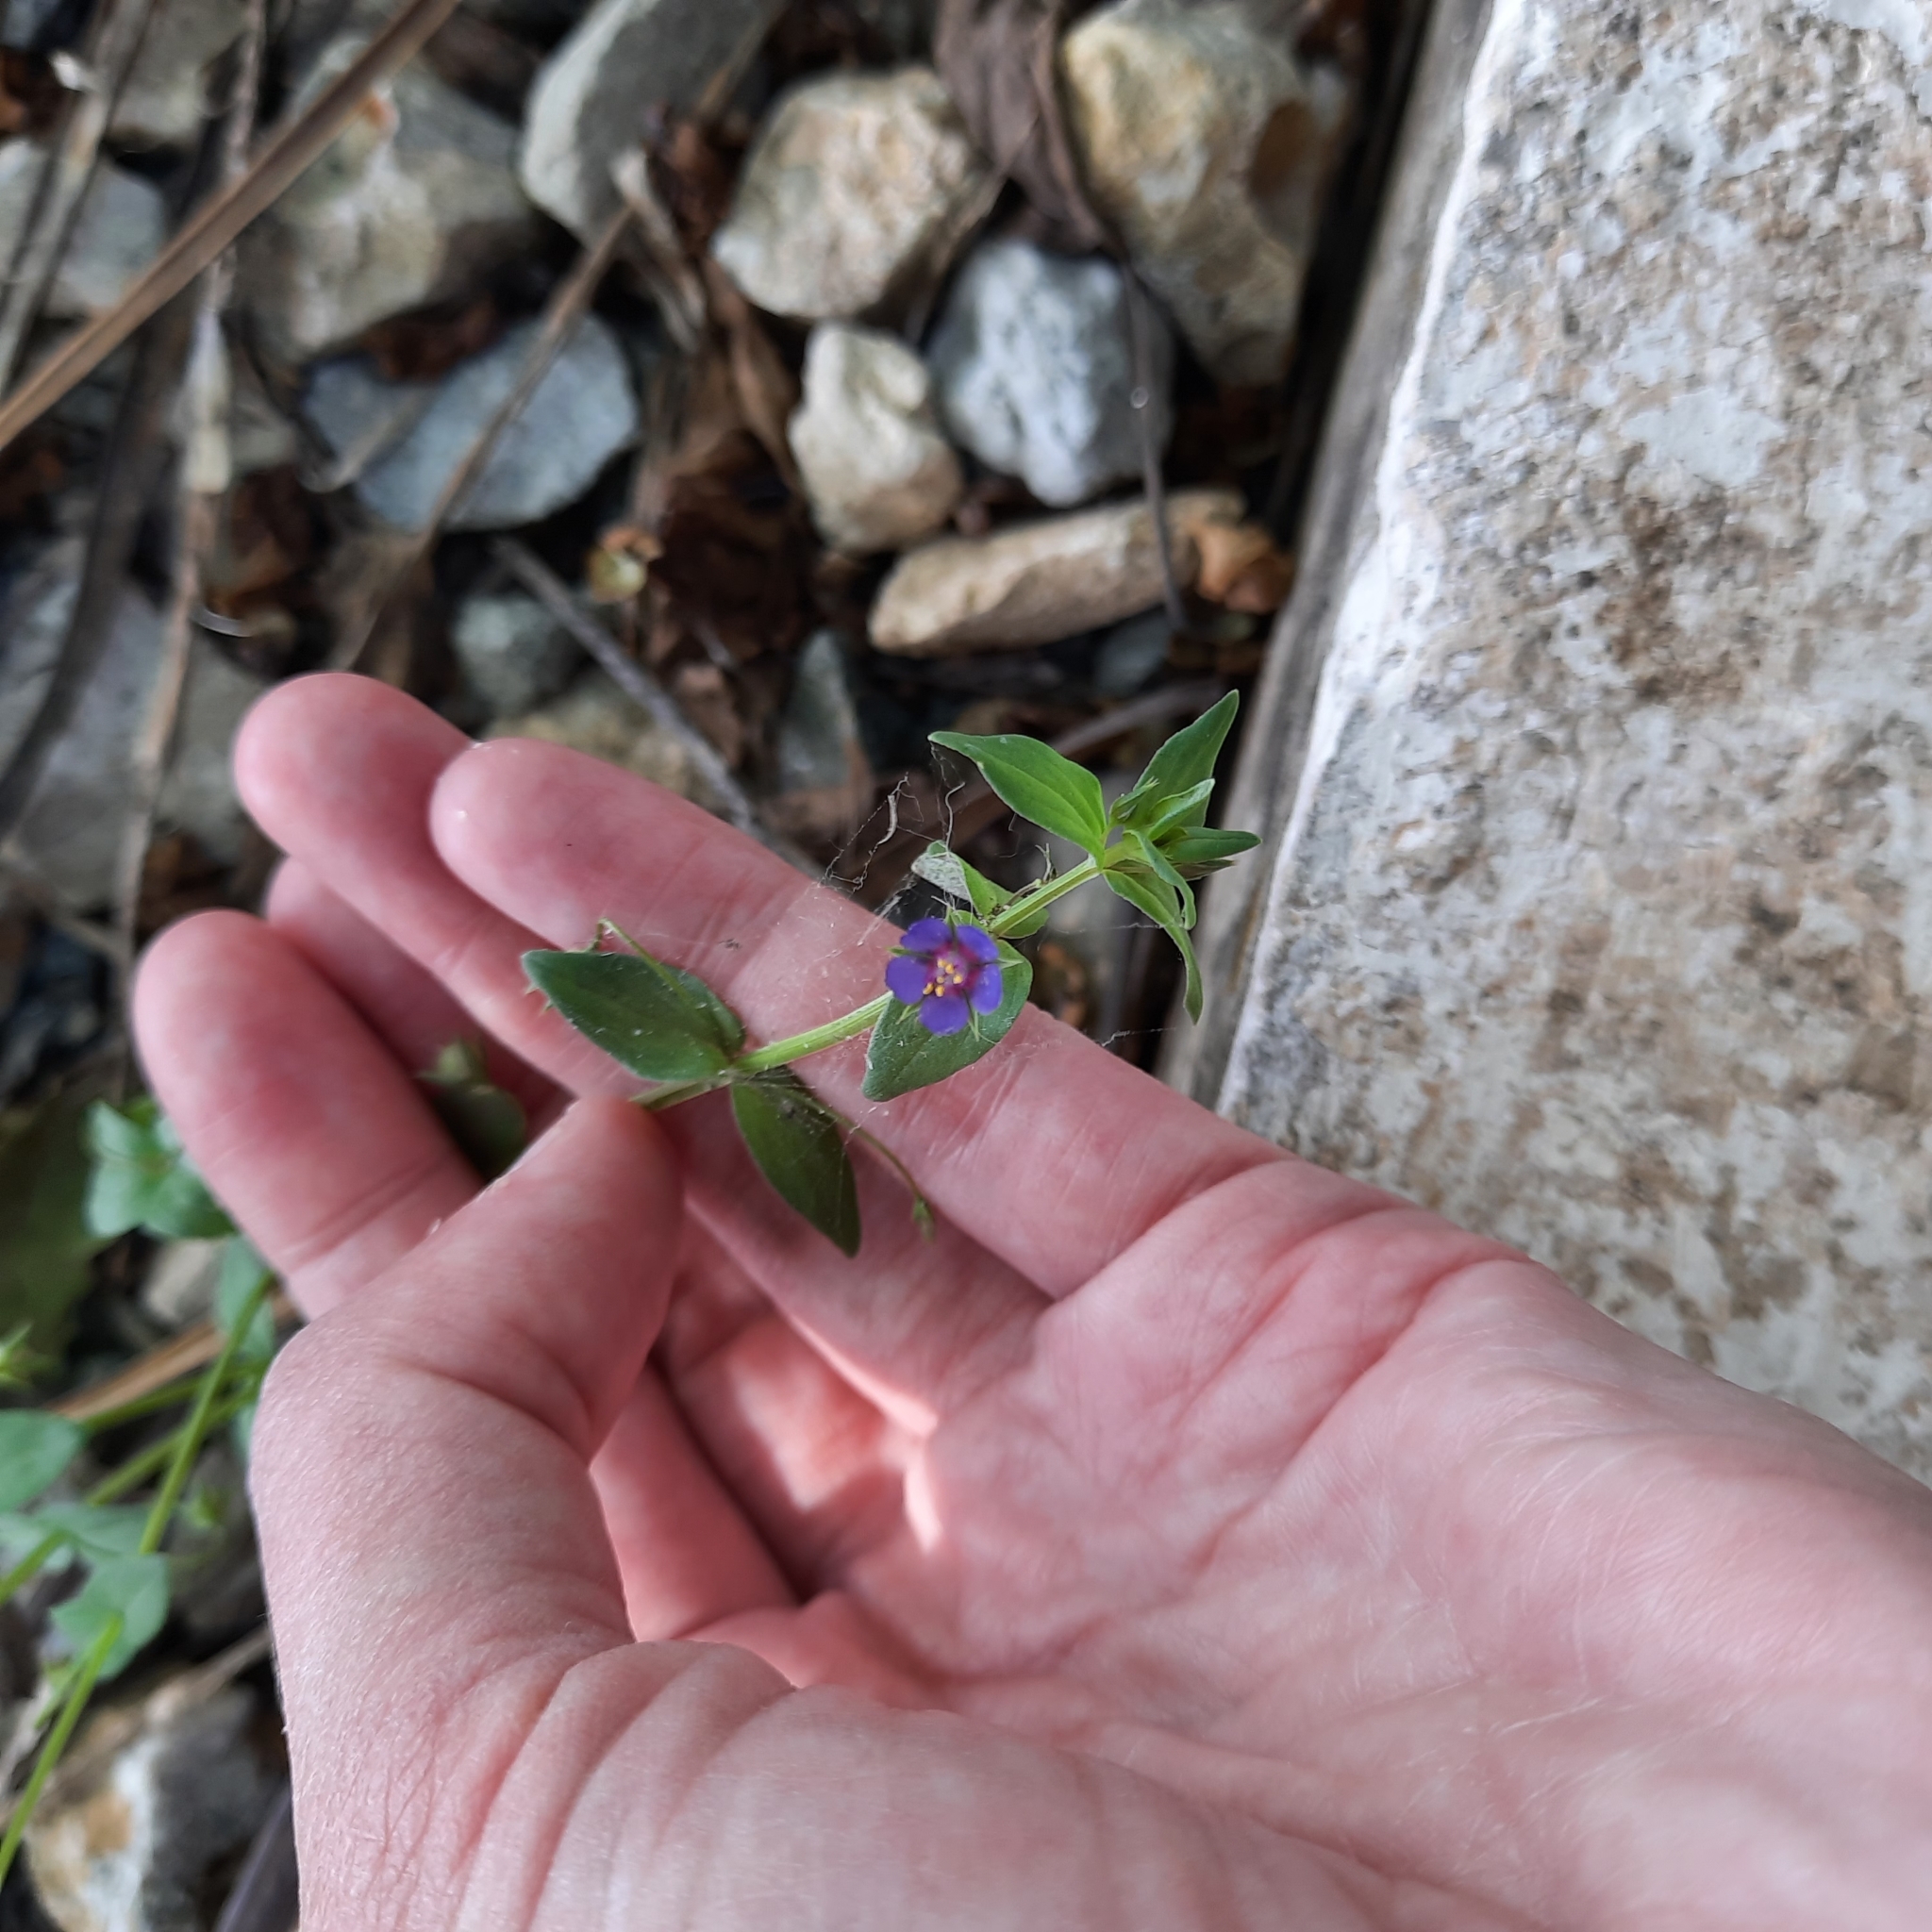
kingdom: Plantae
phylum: Tracheophyta
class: Magnoliopsida
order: Ericales
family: Primulaceae
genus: Lysimachia
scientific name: Lysimachia foemina
